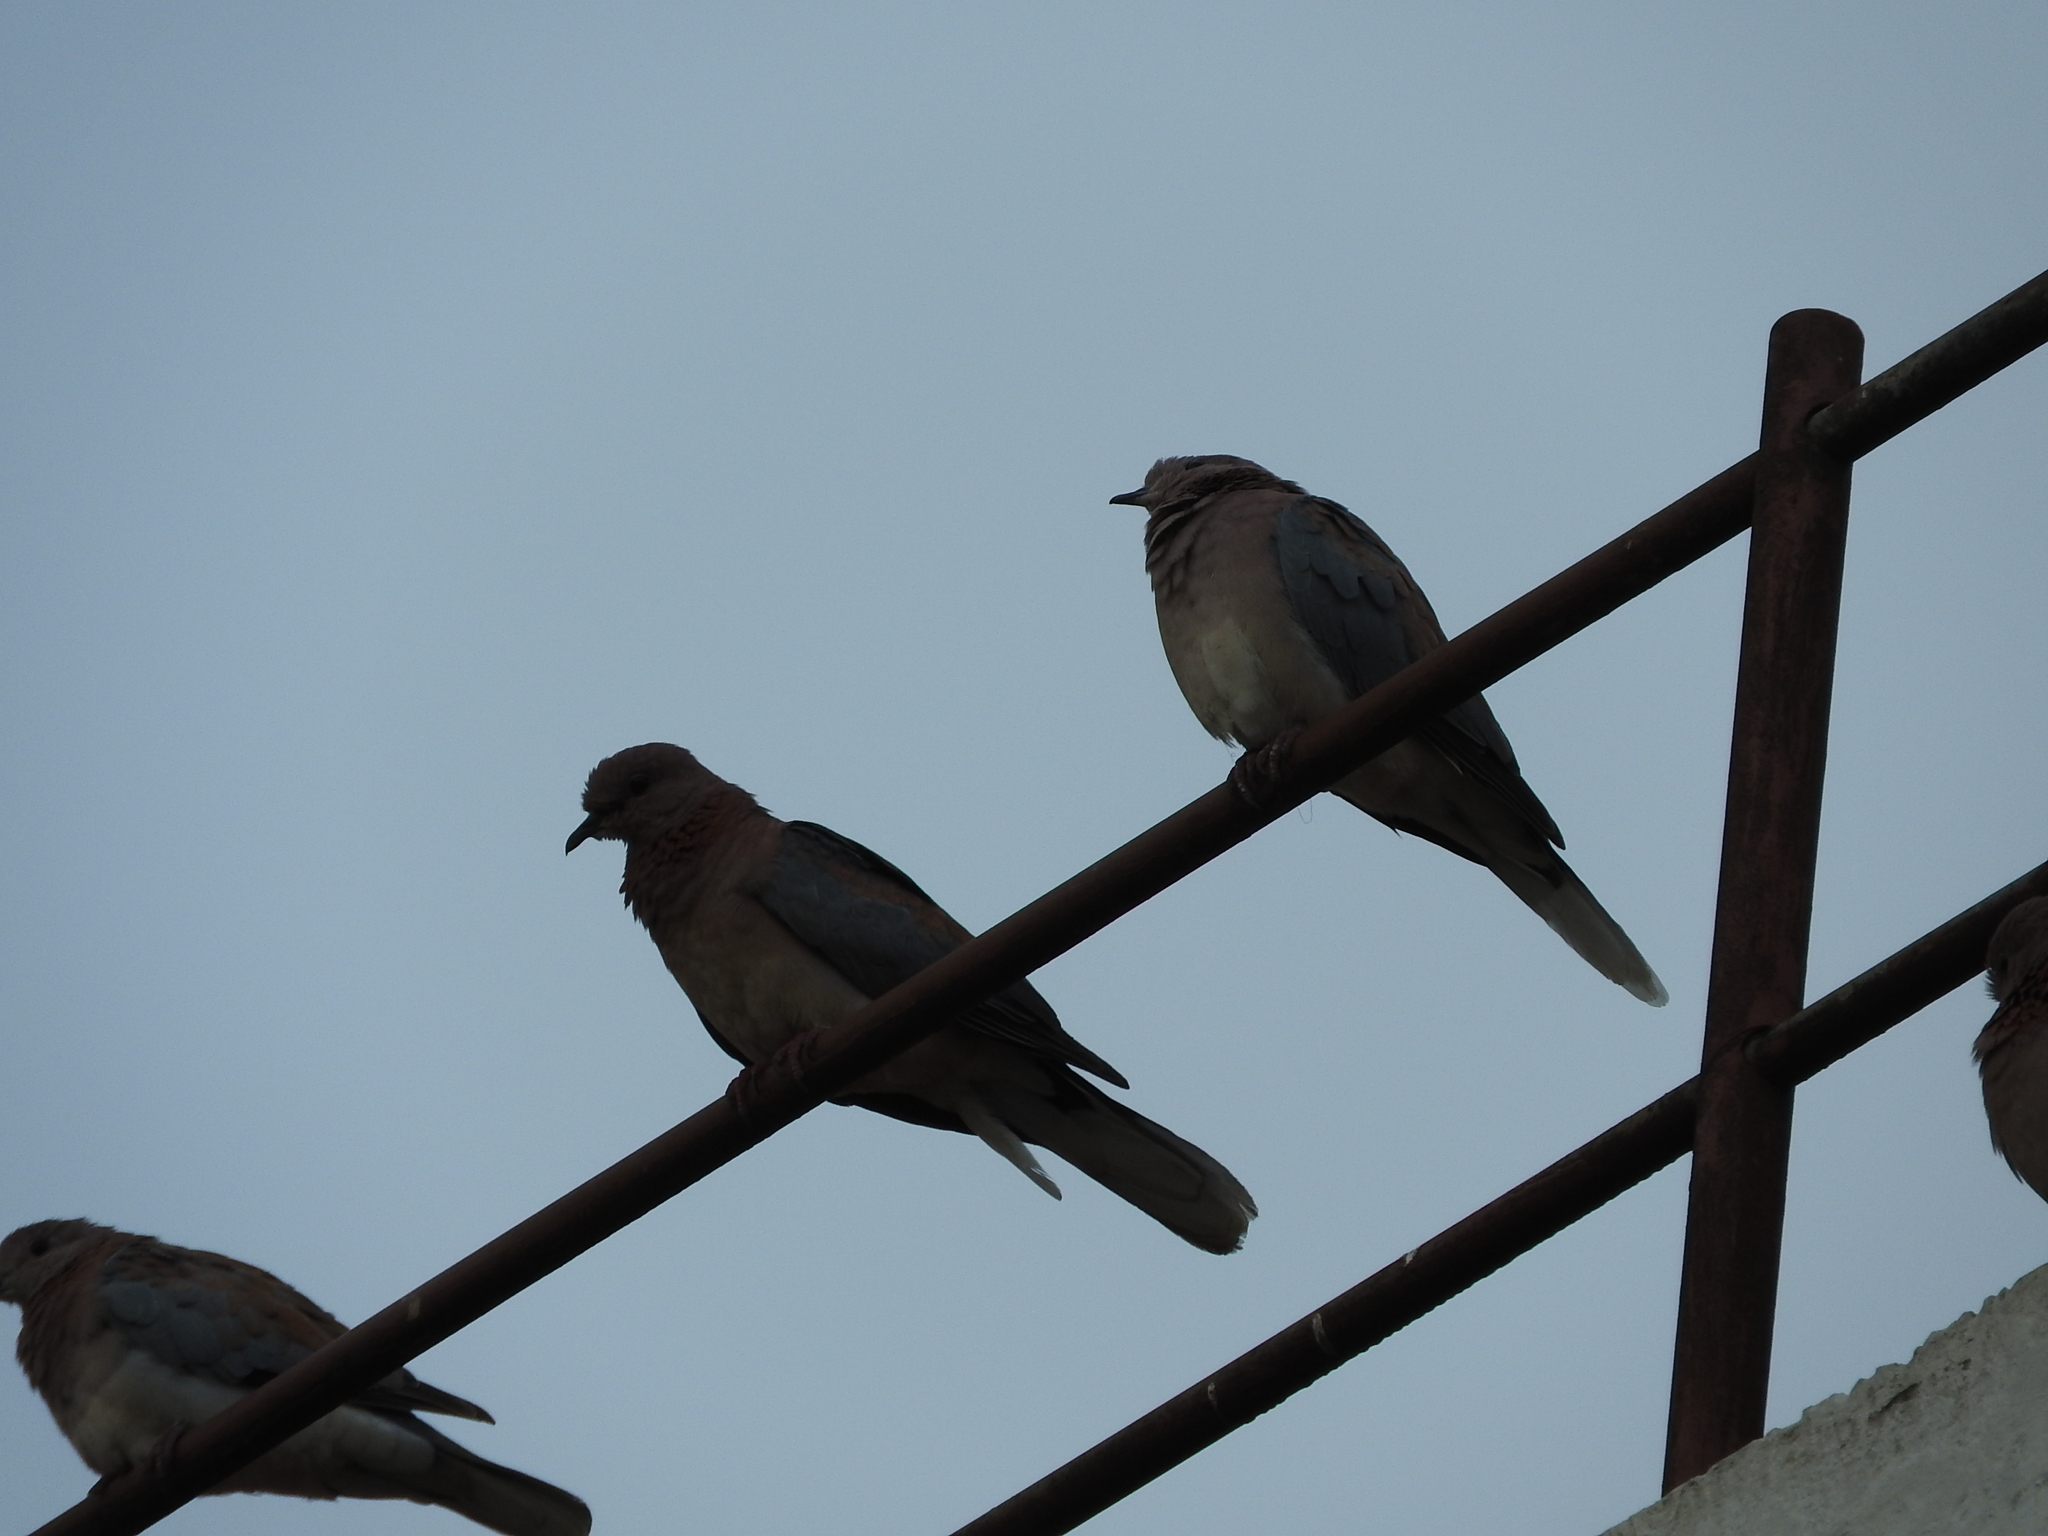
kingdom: Animalia
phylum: Chordata
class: Aves
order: Columbiformes
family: Columbidae
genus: Spilopelia
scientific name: Spilopelia senegalensis
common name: Laughing dove
